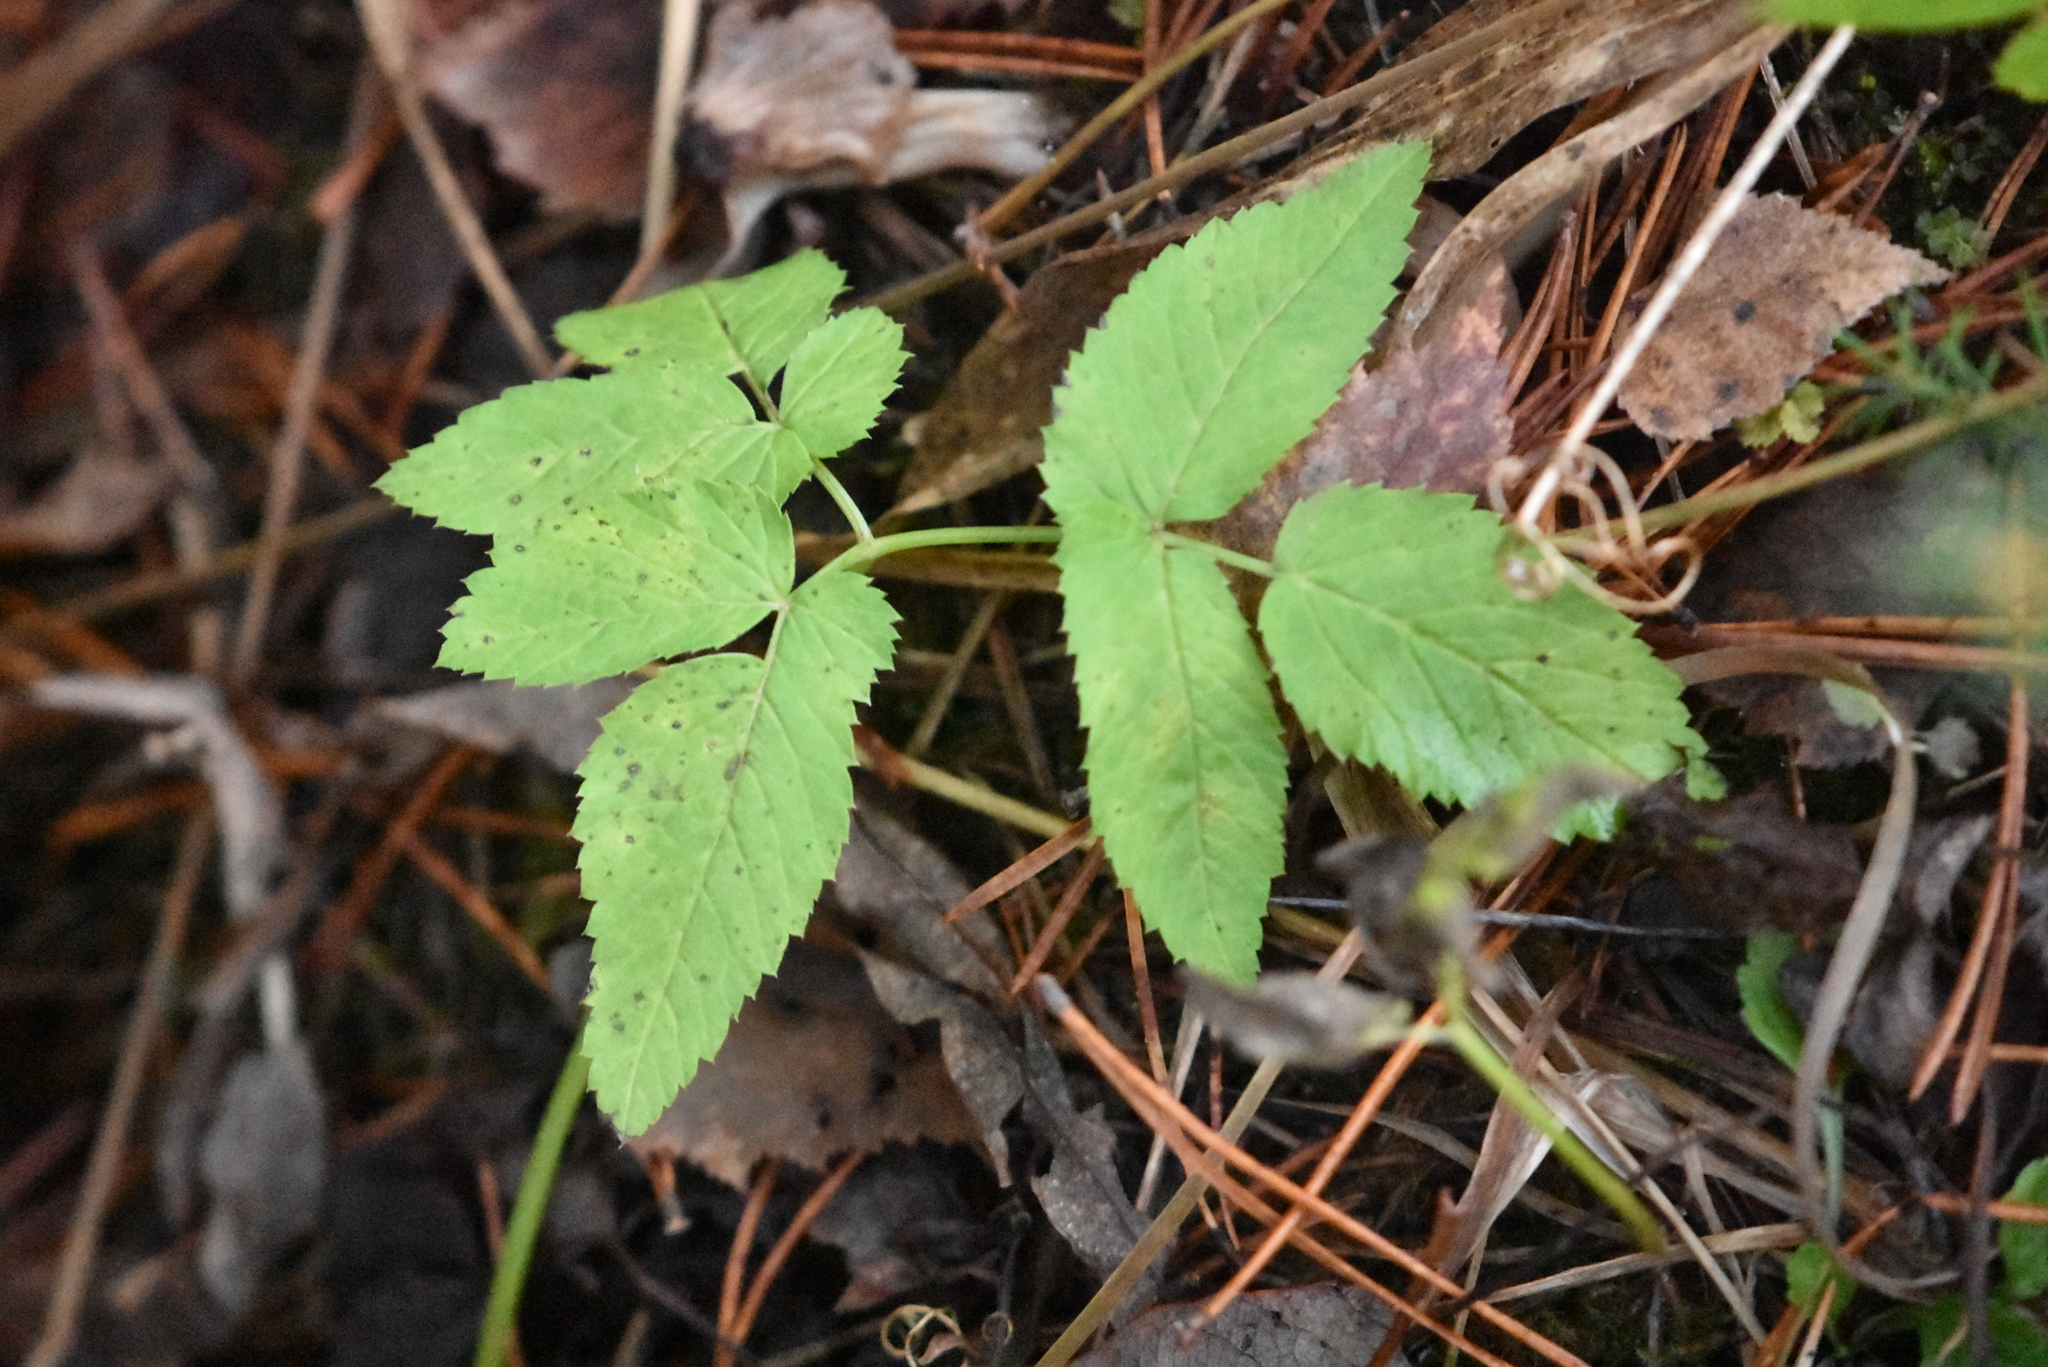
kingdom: Plantae
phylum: Tracheophyta
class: Magnoliopsida
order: Apiales
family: Apiaceae
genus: Aegopodium
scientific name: Aegopodium podagraria
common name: Ground-elder
